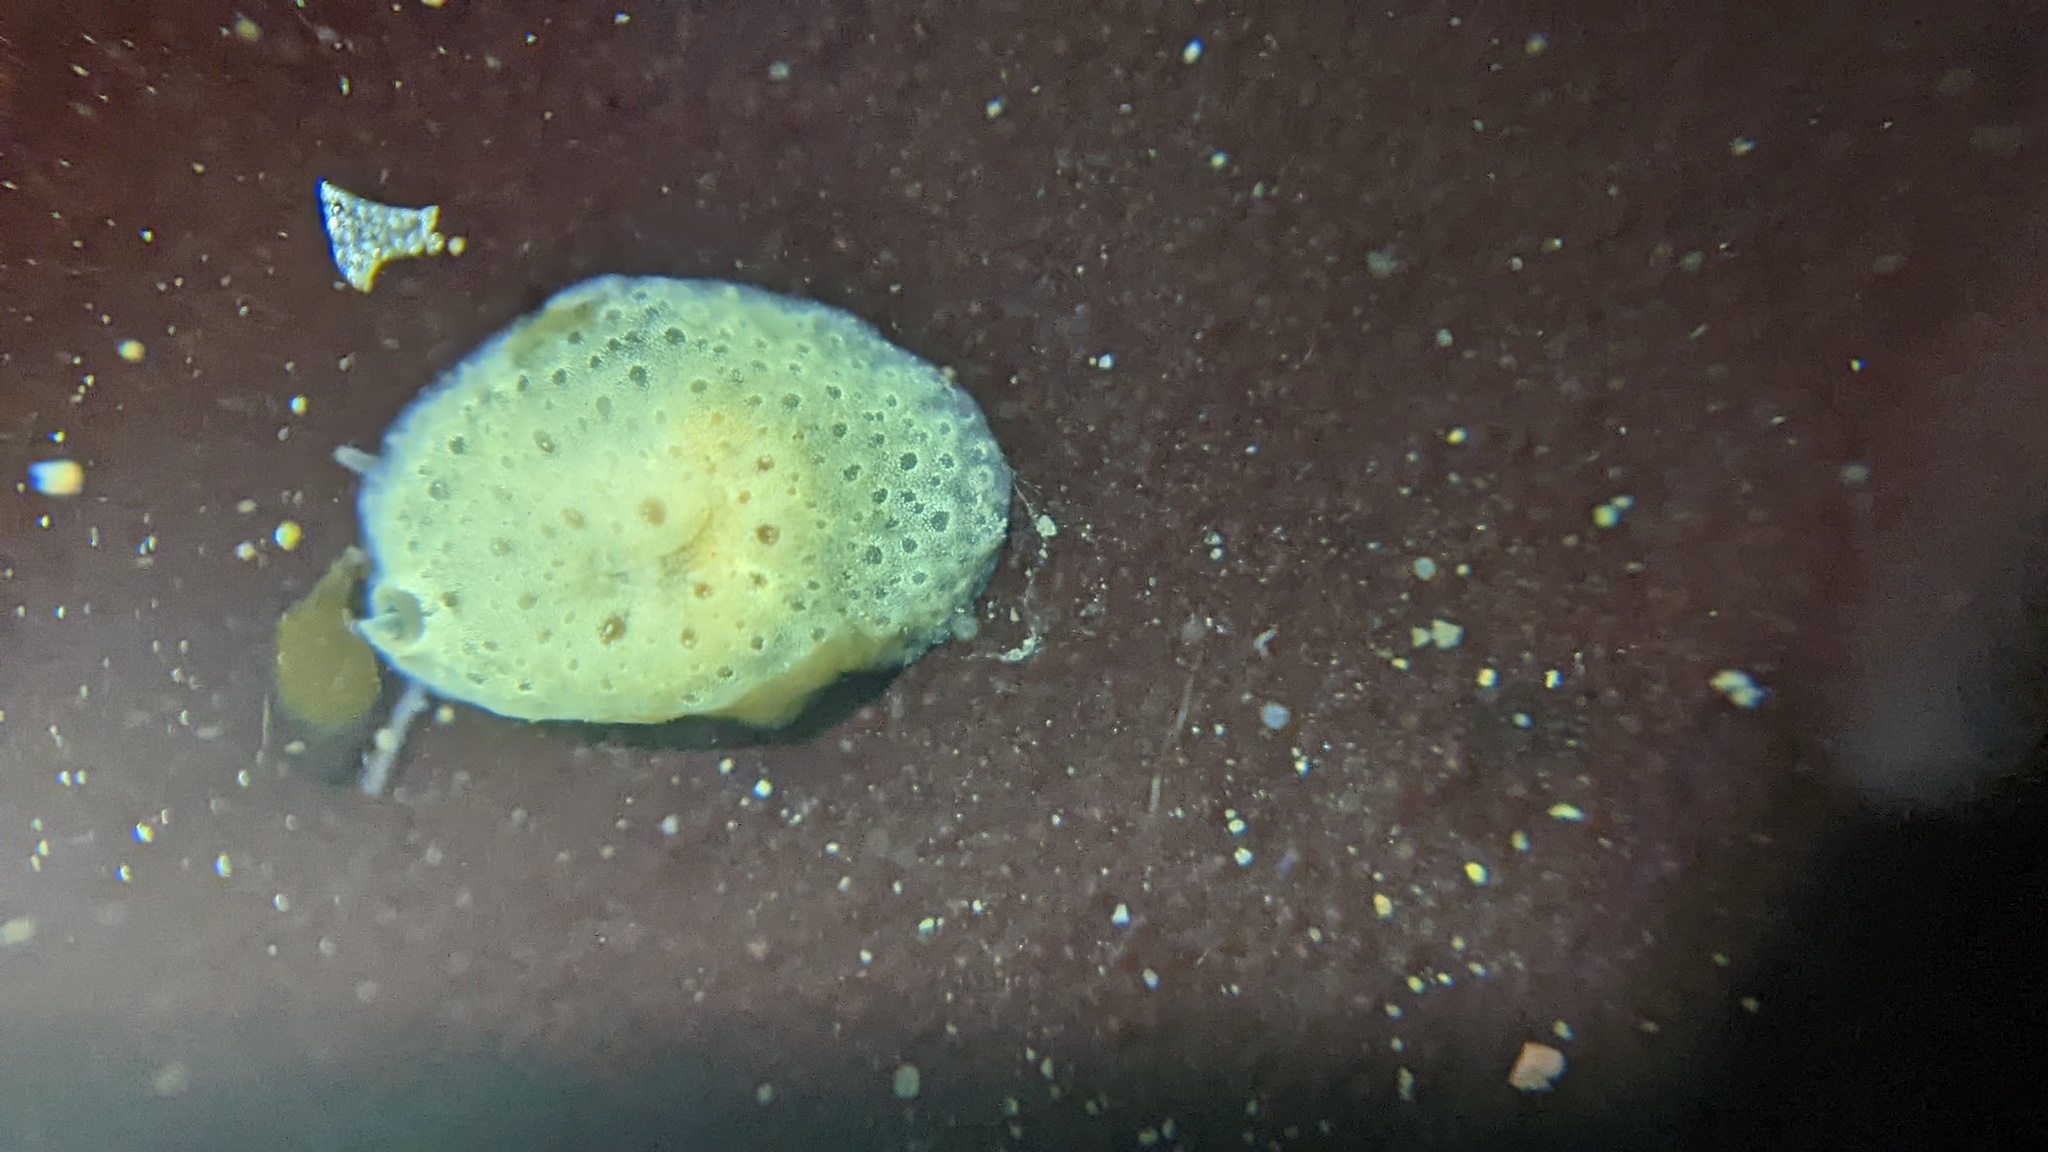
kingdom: Animalia
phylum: Mollusca
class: Gastropoda
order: Littorinimorpha
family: Velutinidae
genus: Marsenina
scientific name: Marsenina stearnsii
